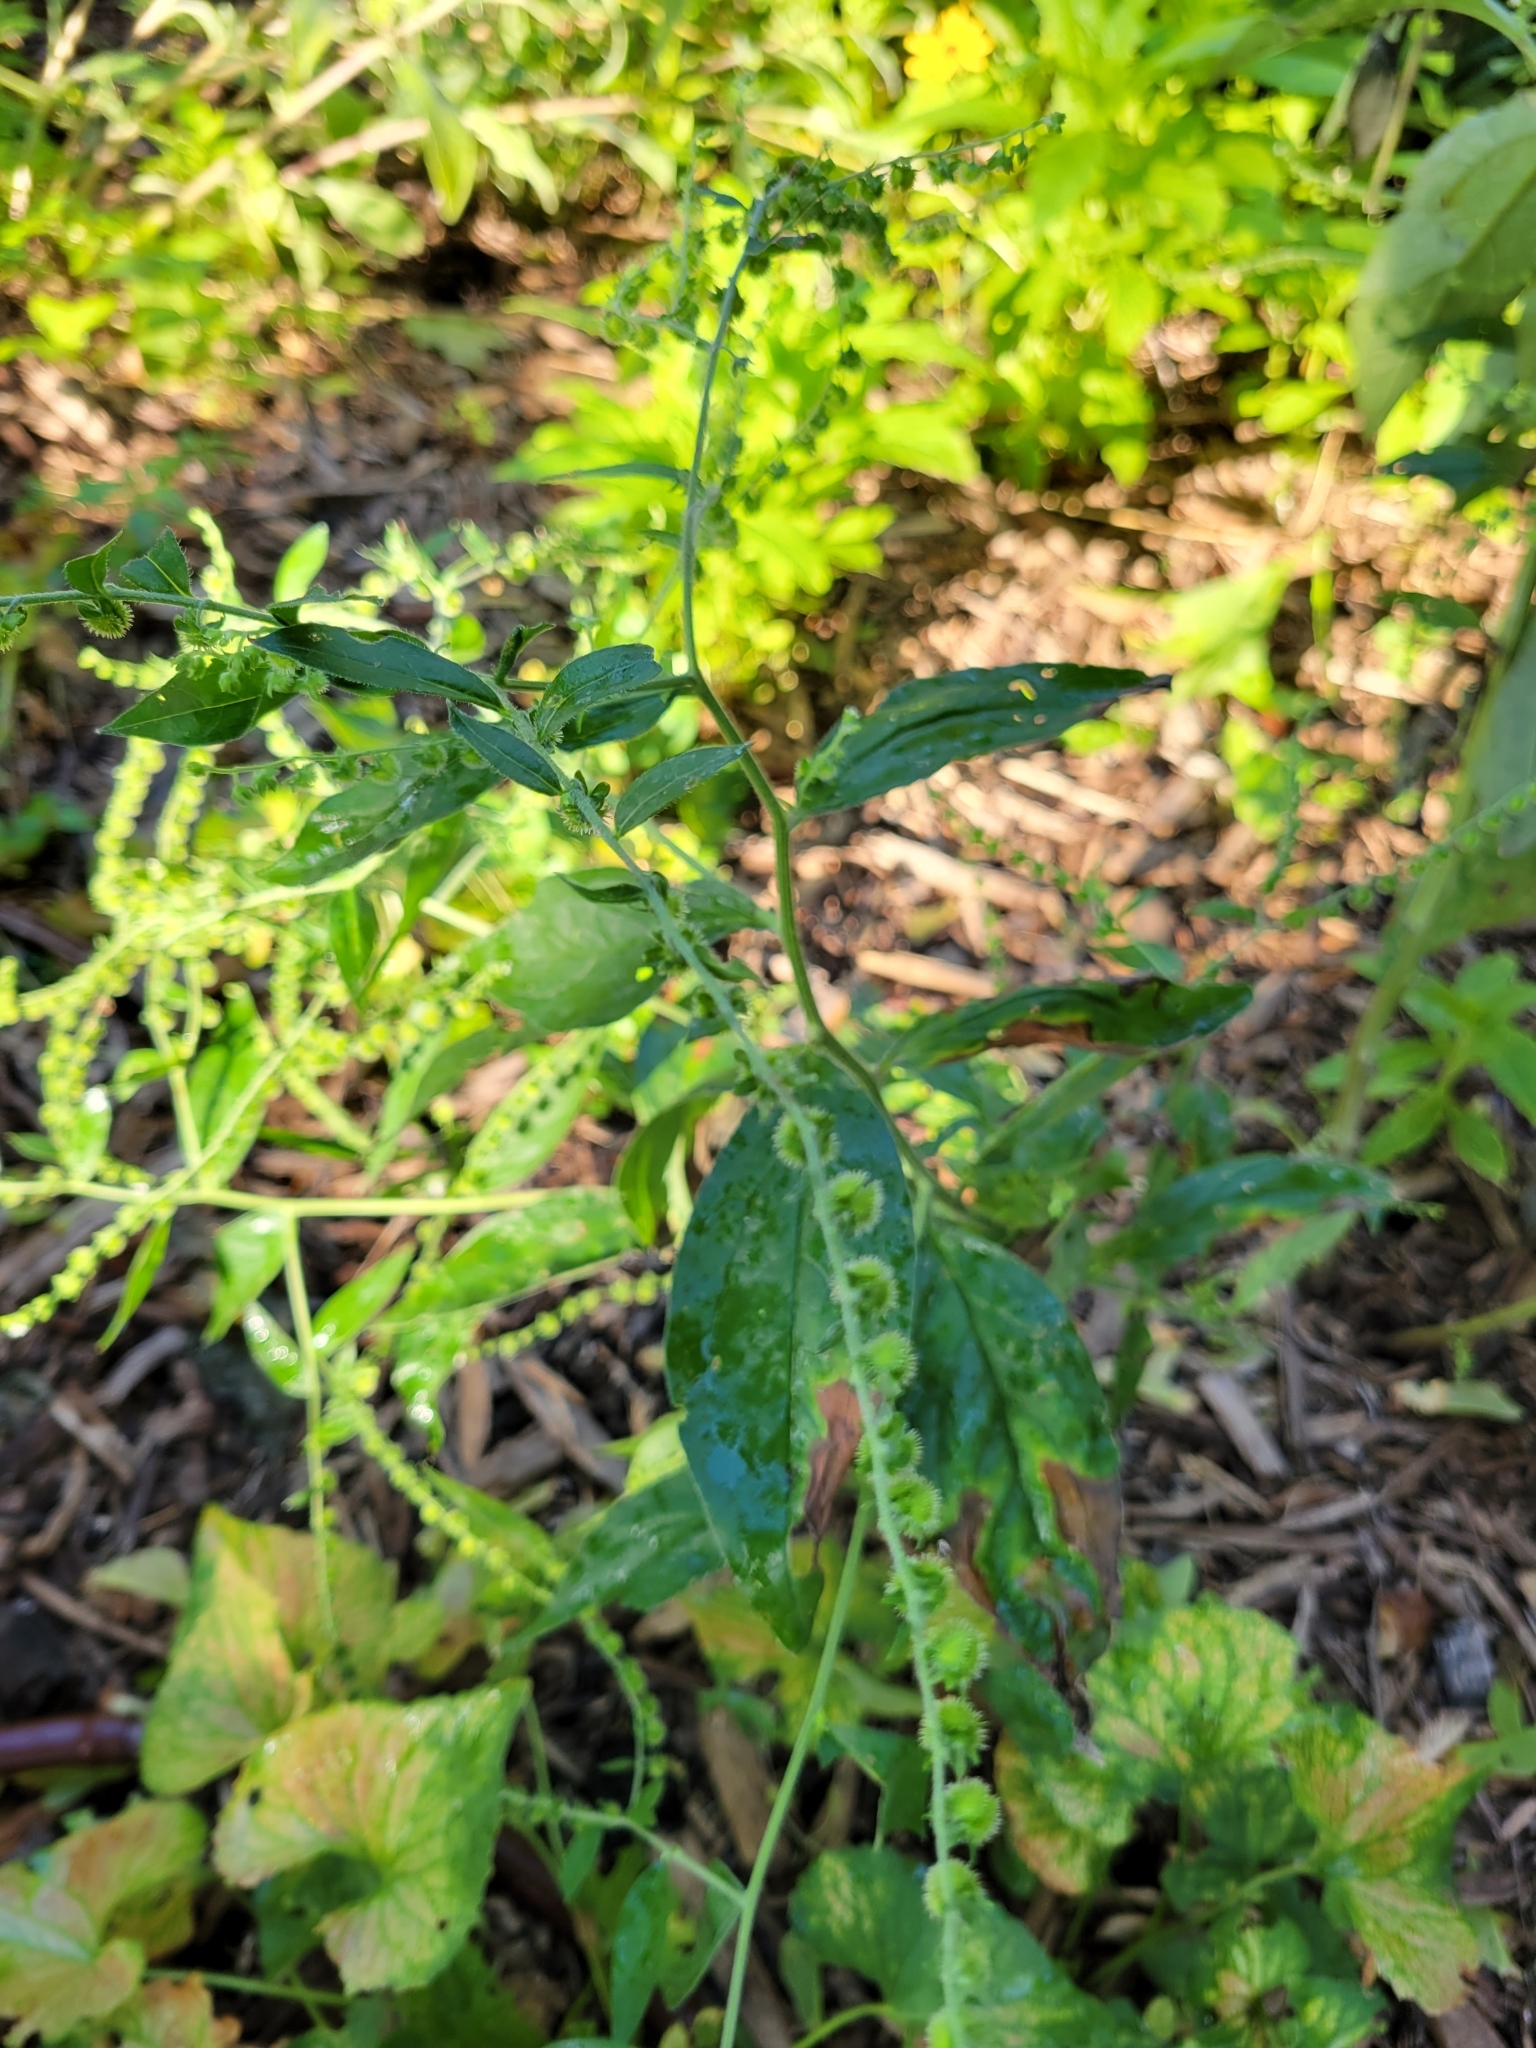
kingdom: Plantae
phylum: Tracheophyta
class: Magnoliopsida
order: Boraginales
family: Boraginaceae
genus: Hackelia
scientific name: Hackelia virginiana
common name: Beggar's-lice
